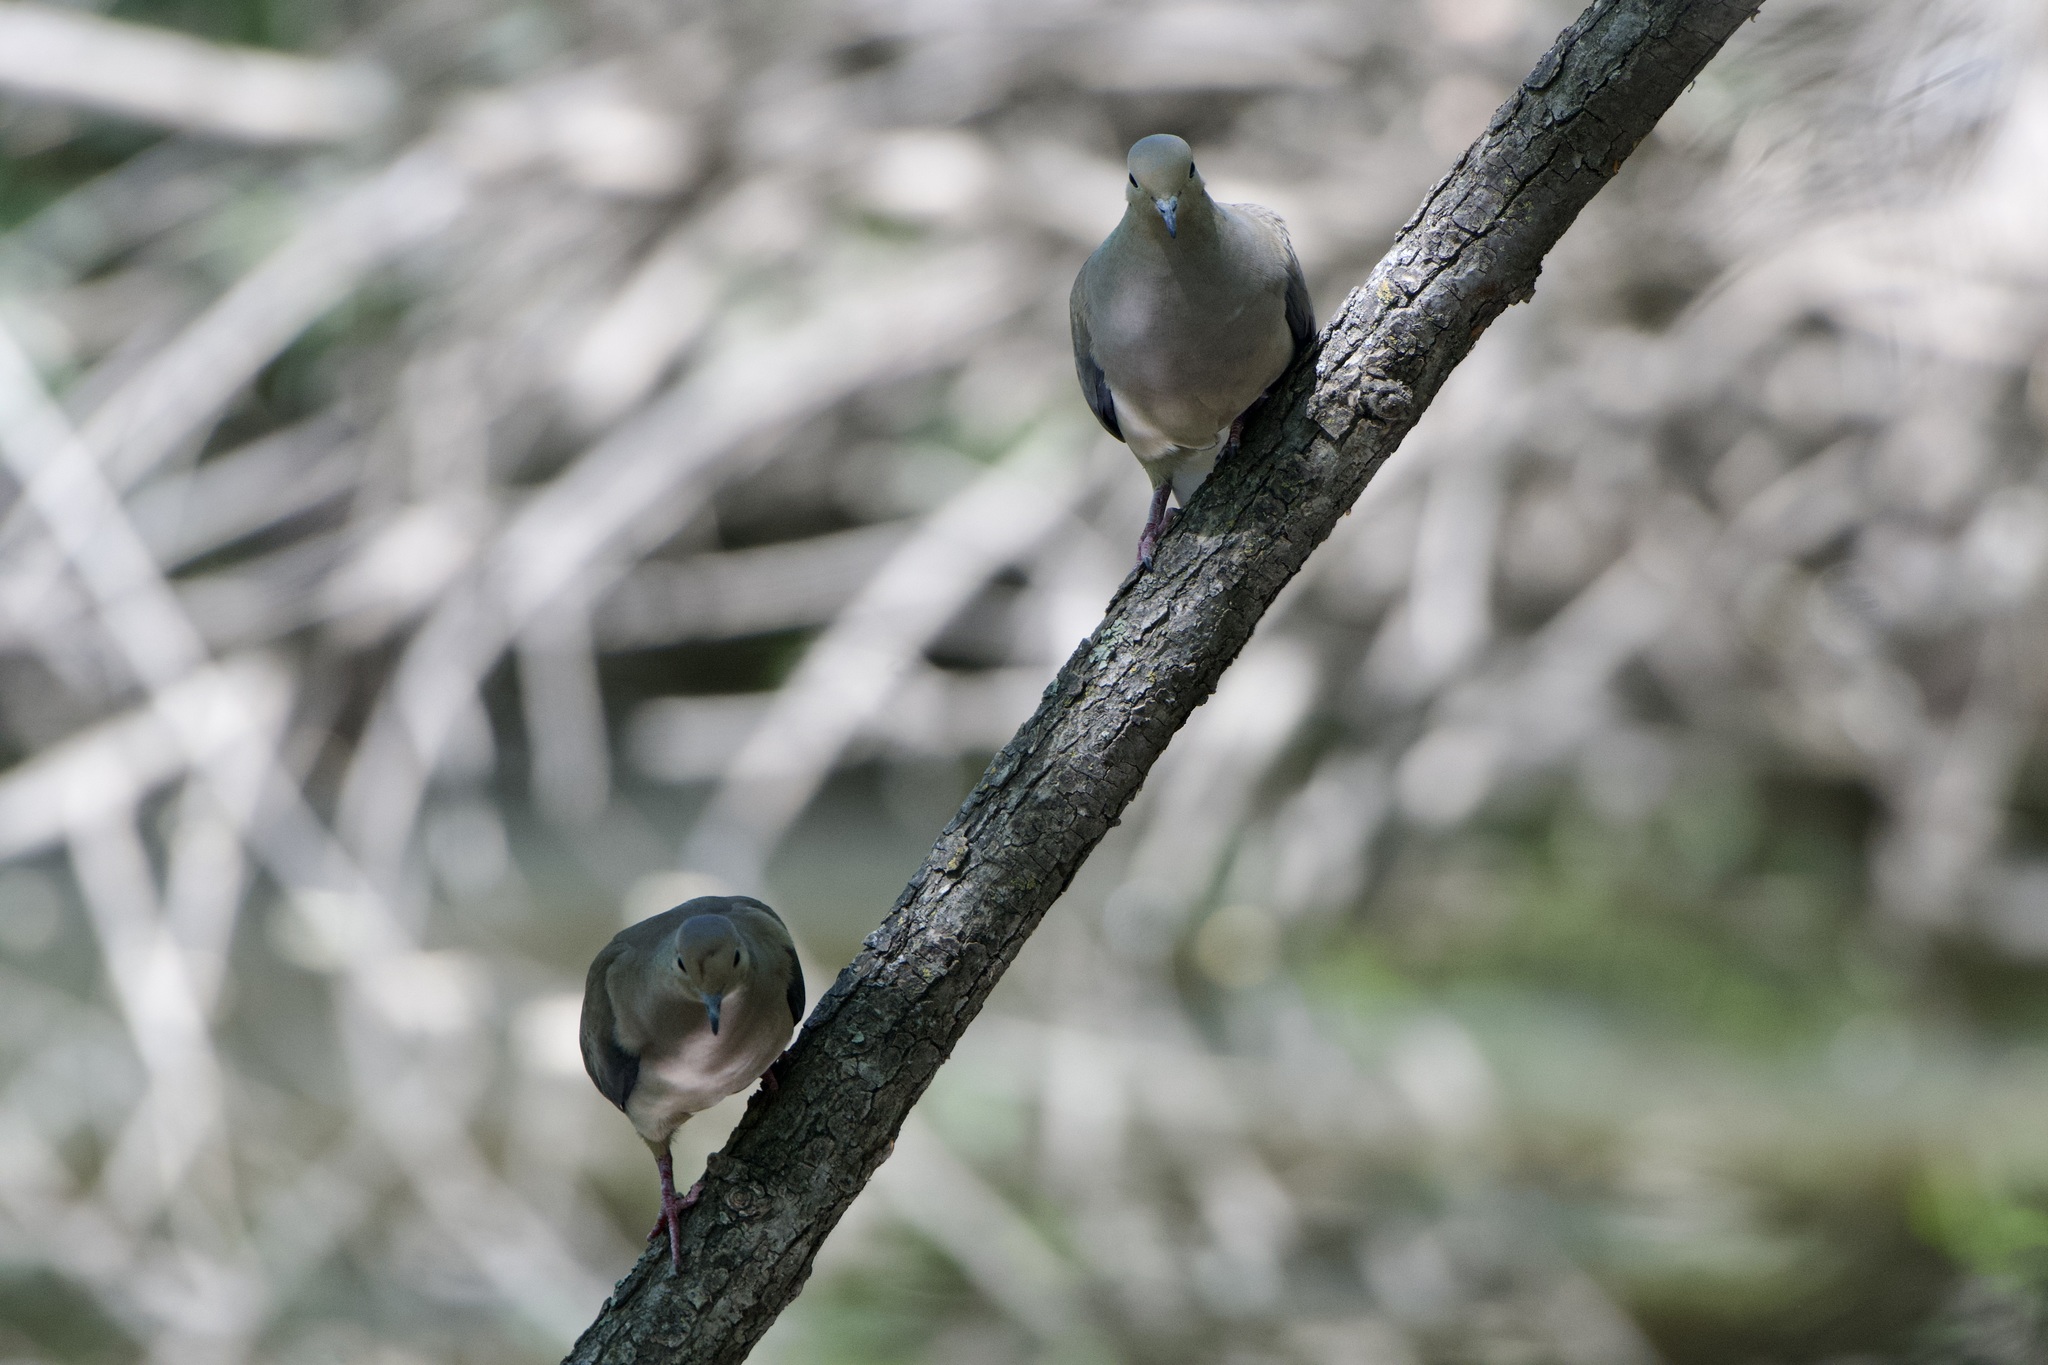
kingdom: Animalia
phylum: Chordata
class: Aves
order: Columbiformes
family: Columbidae
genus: Zenaida
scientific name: Zenaida macroura
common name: Mourning dove
